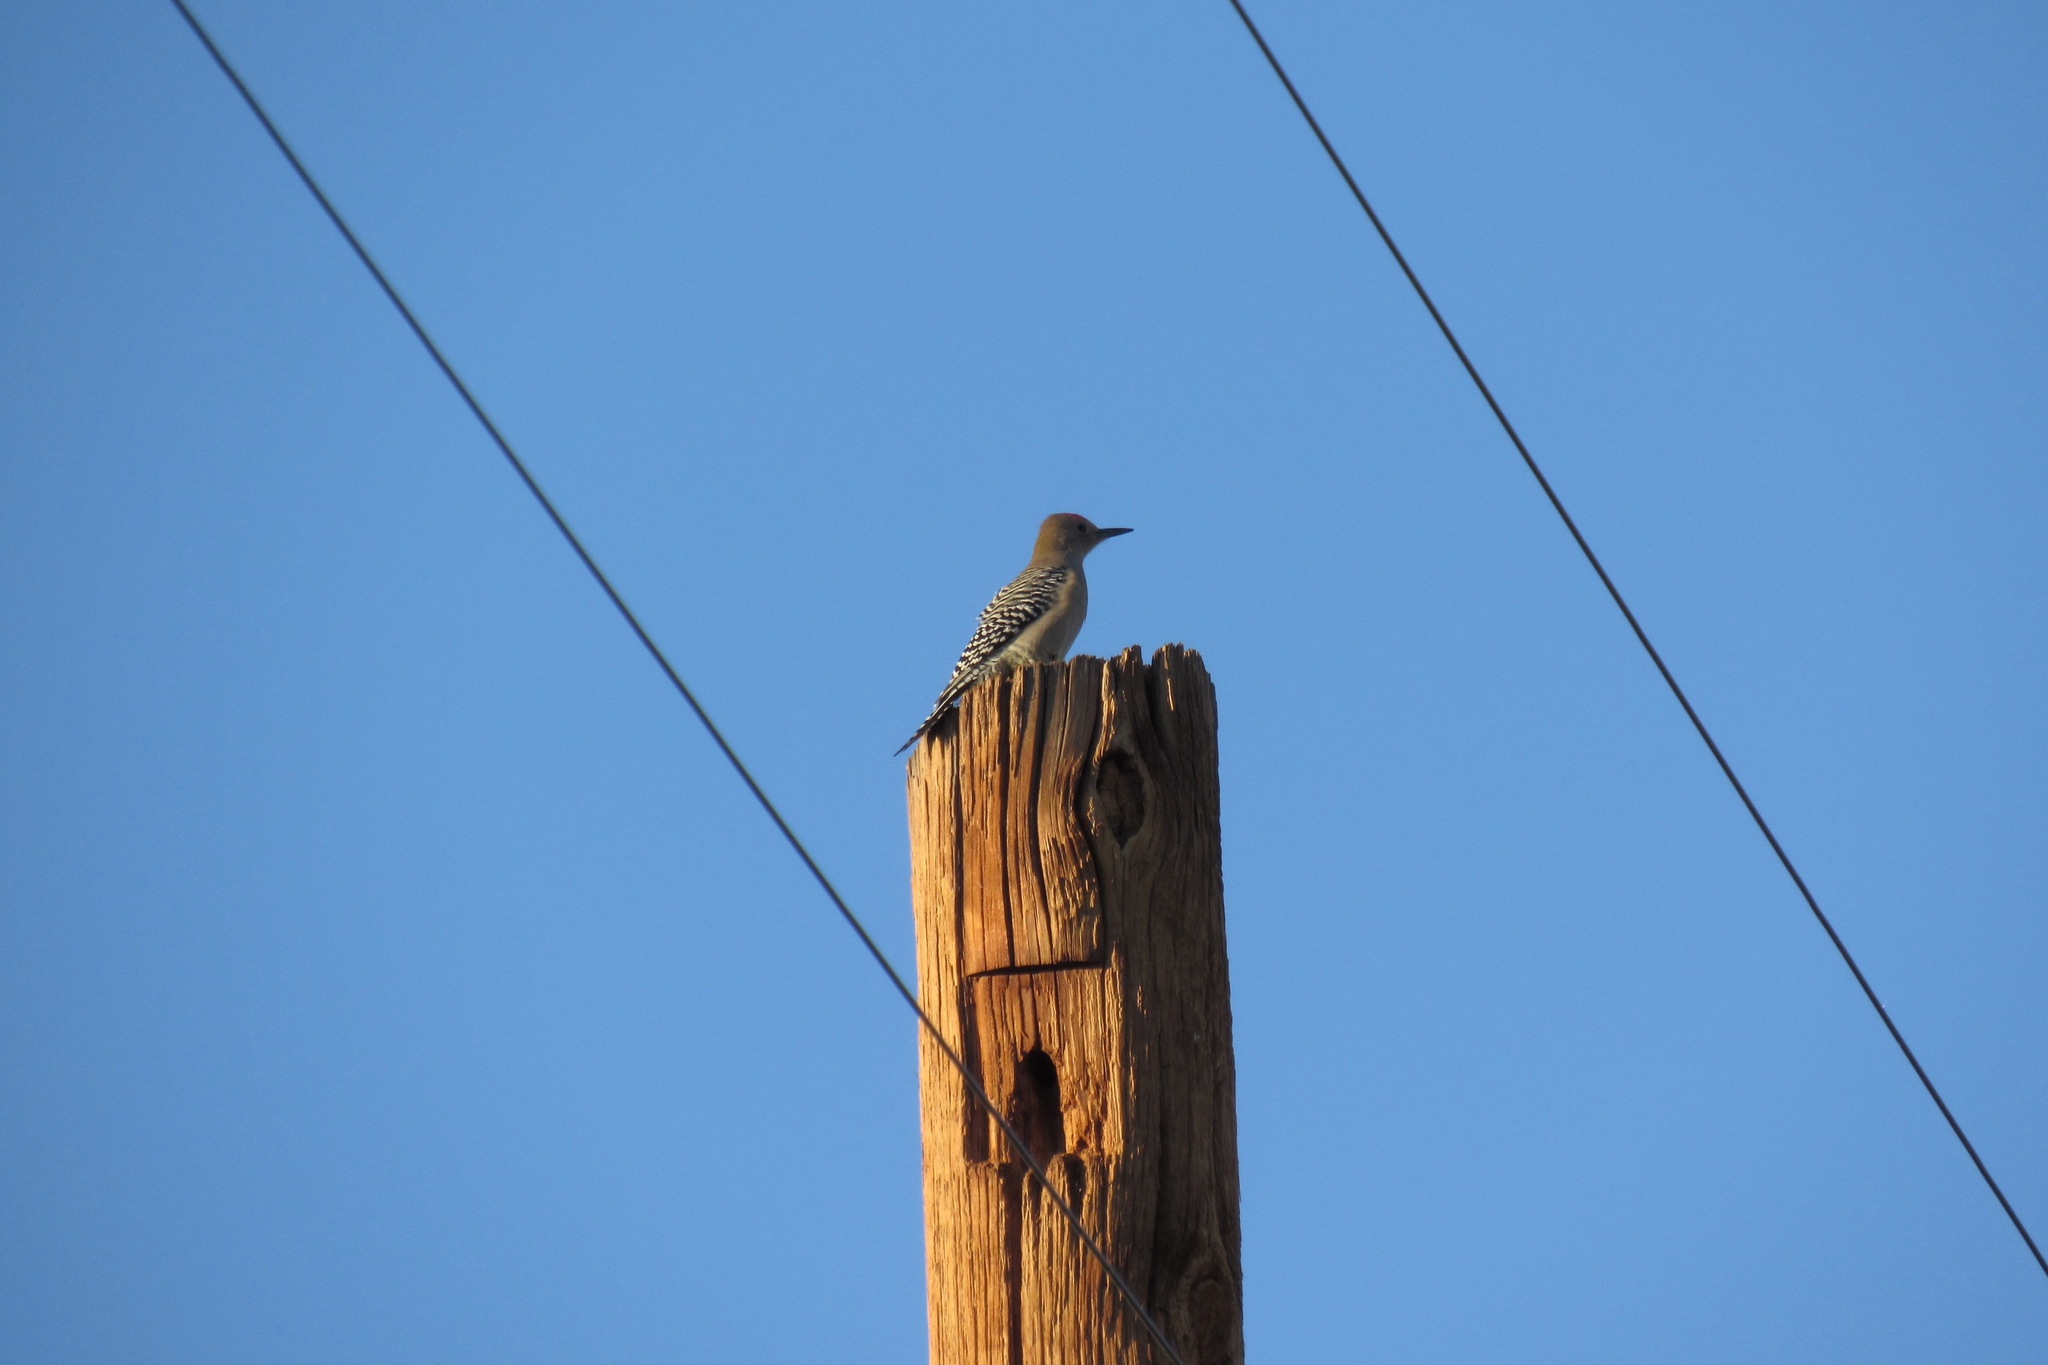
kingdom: Animalia
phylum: Chordata
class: Aves
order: Piciformes
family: Picidae
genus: Melanerpes
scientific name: Melanerpes uropygialis
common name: Gila woodpecker
